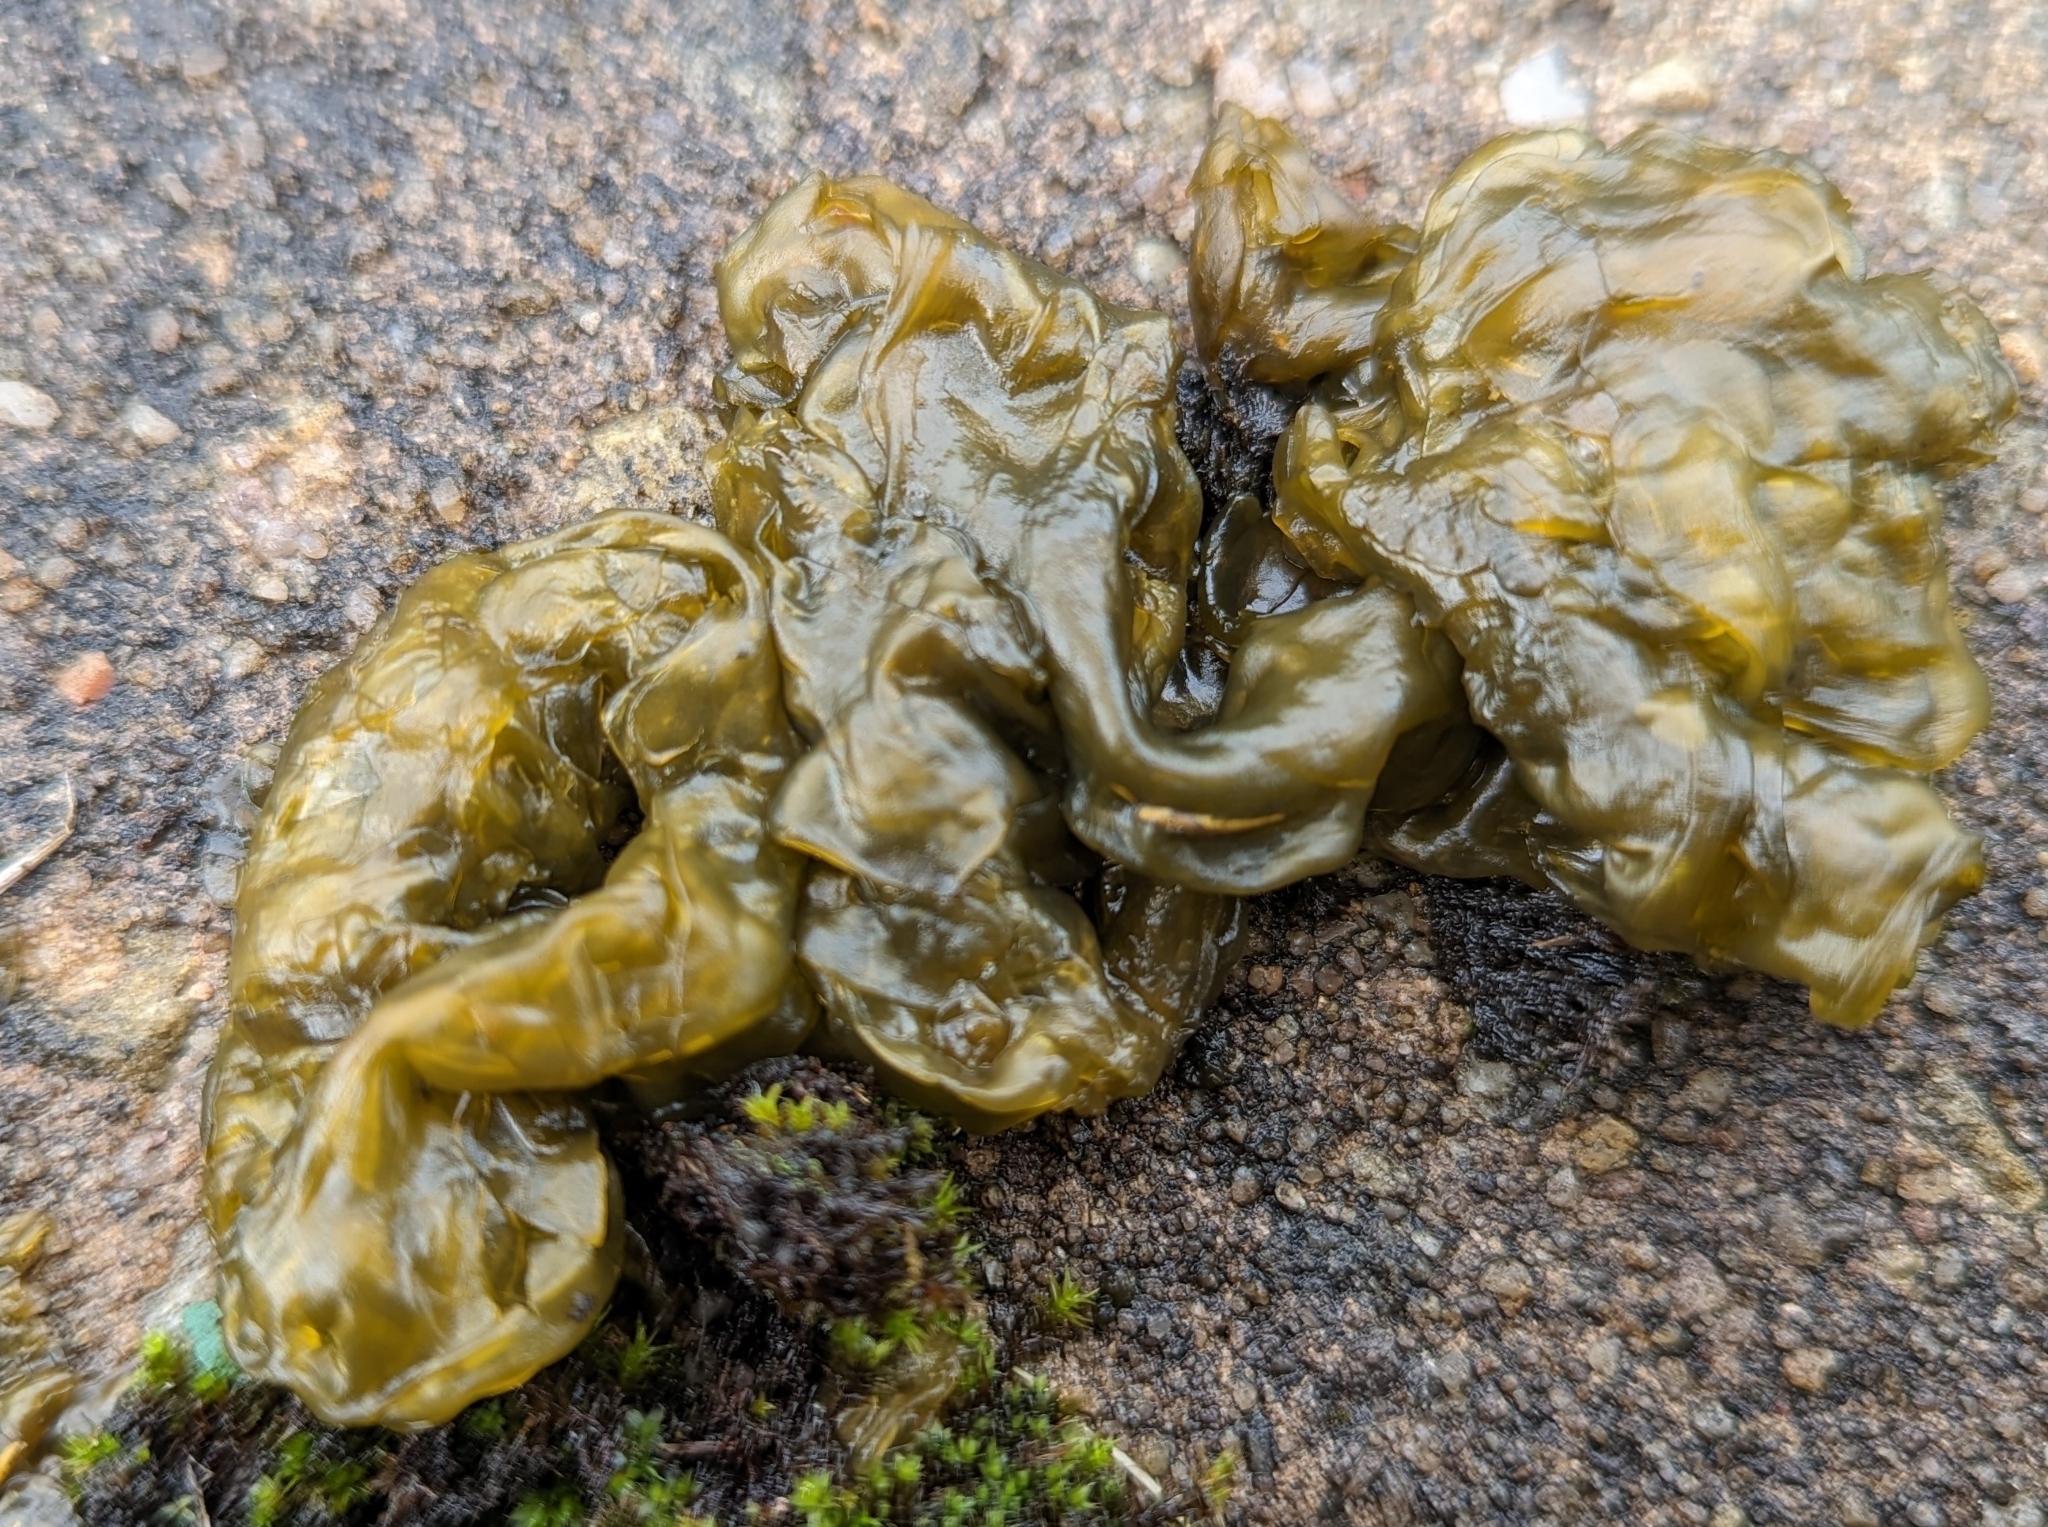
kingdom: Bacteria
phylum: Cyanobacteria
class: Cyanobacteriia
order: Cyanobacteriales
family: Nostocaceae
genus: Nostoc
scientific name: Nostoc commune
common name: Star jelly
